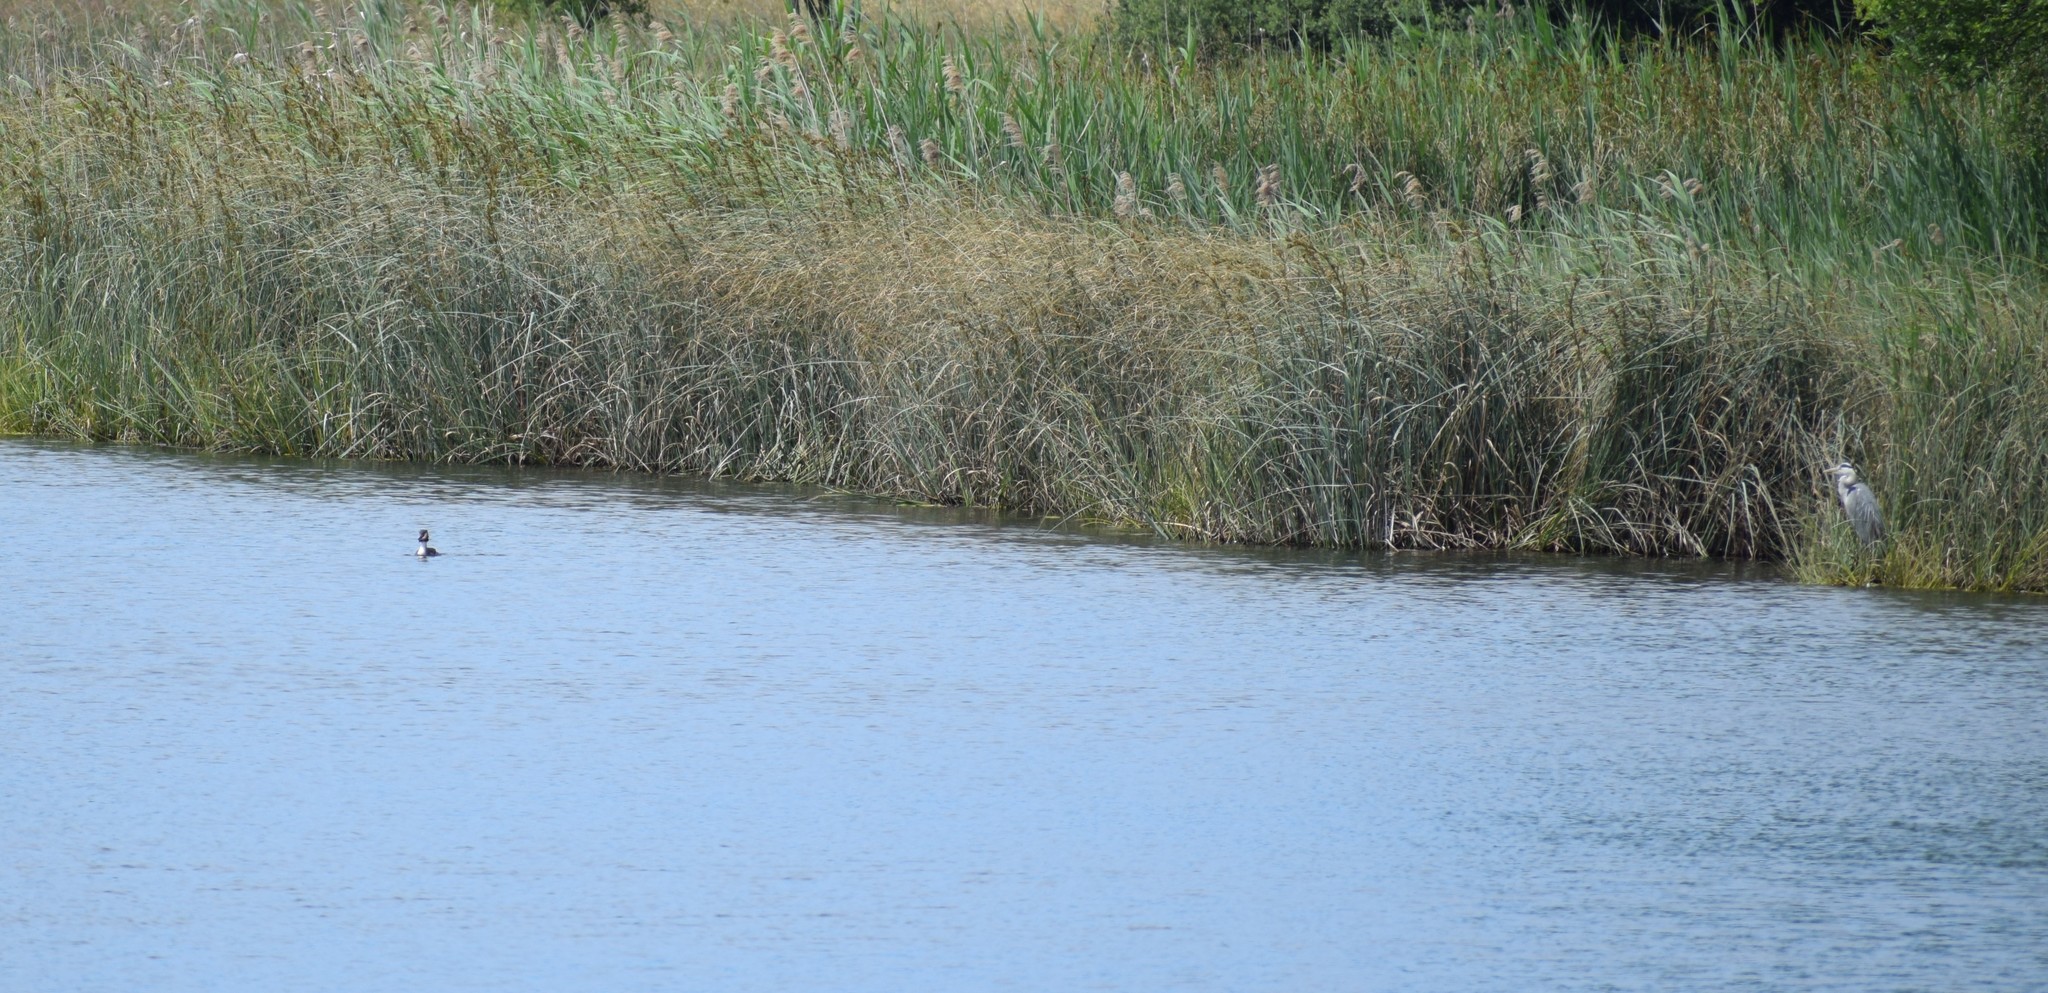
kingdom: Animalia
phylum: Chordata
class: Aves
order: Pelecaniformes
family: Ardeidae
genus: Ardea
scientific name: Ardea cinerea
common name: Grey heron
